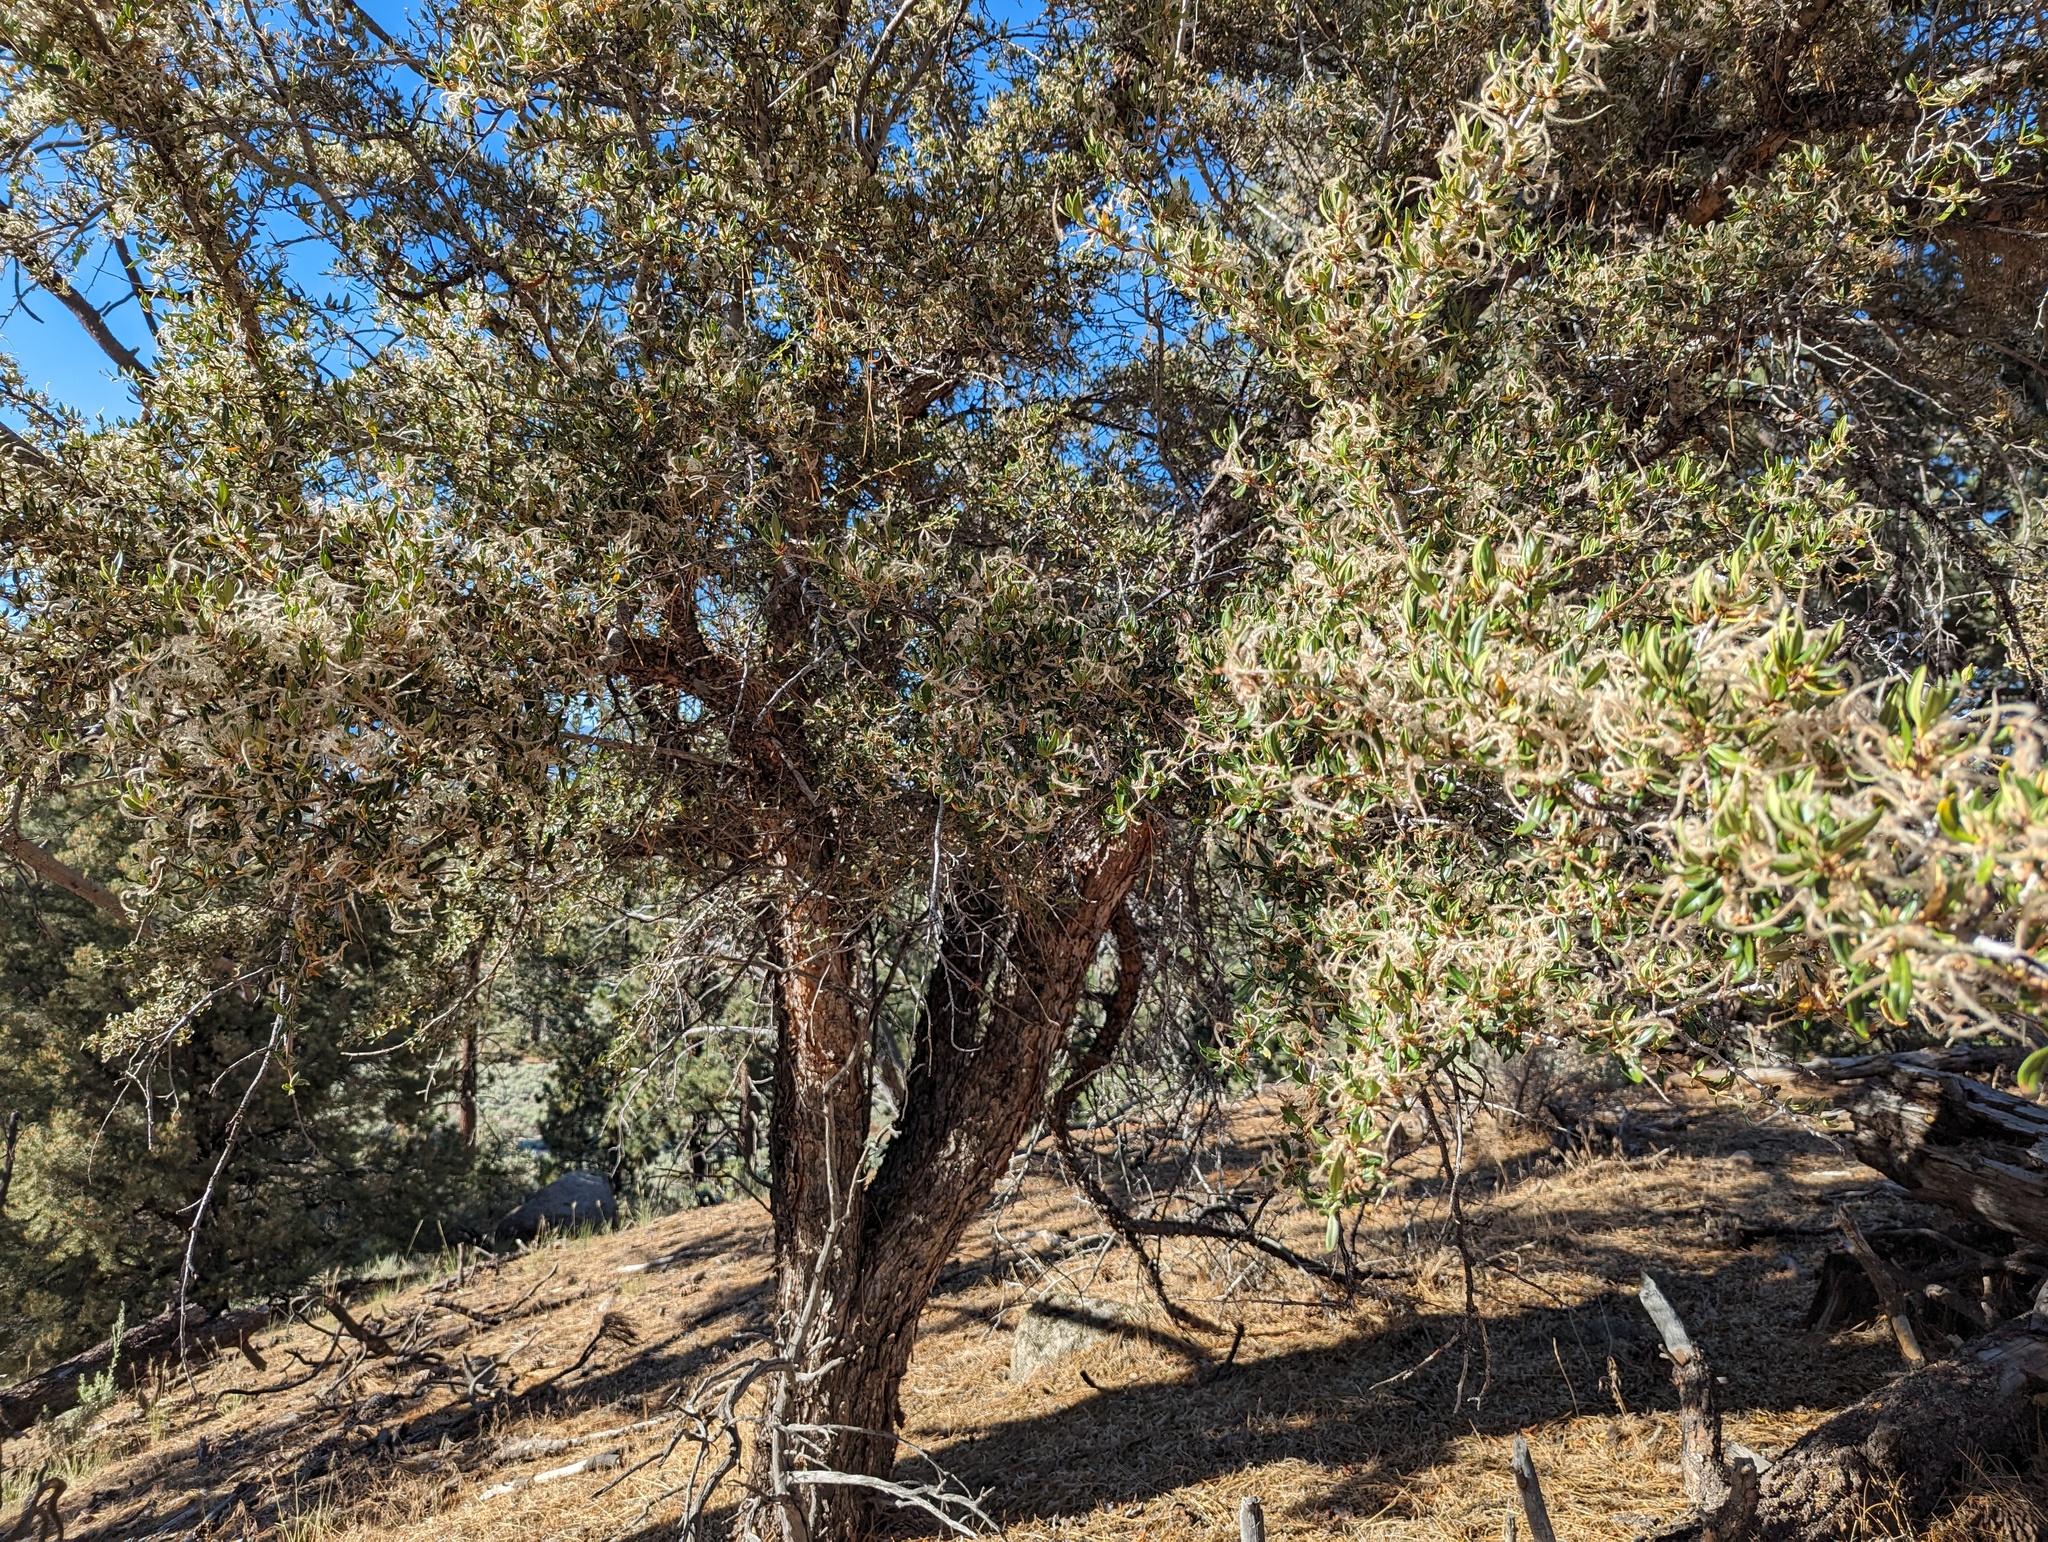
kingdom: Plantae
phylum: Tracheophyta
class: Magnoliopsida
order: Rosales
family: Rosaceae
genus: Cercocarpus
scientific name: Cercocarpus ledifolius
